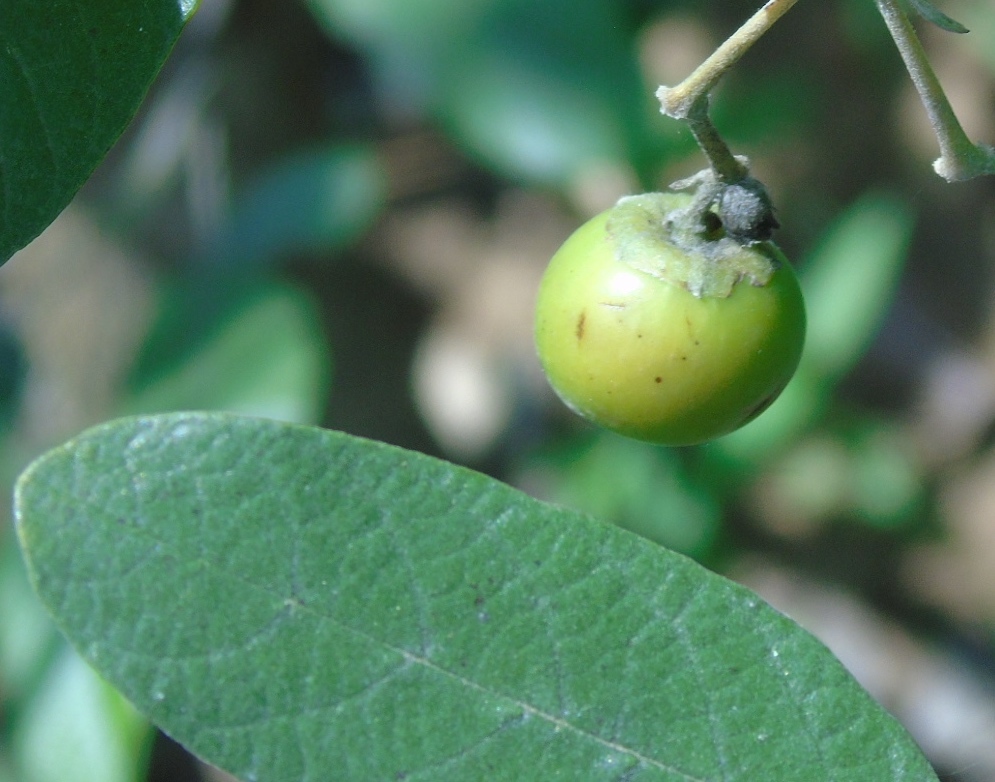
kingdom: Plantae
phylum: Tracheophyta
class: Magnoliopsida
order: Lamiales
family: Lamiaceae
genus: Vitex
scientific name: Vitex mollis
